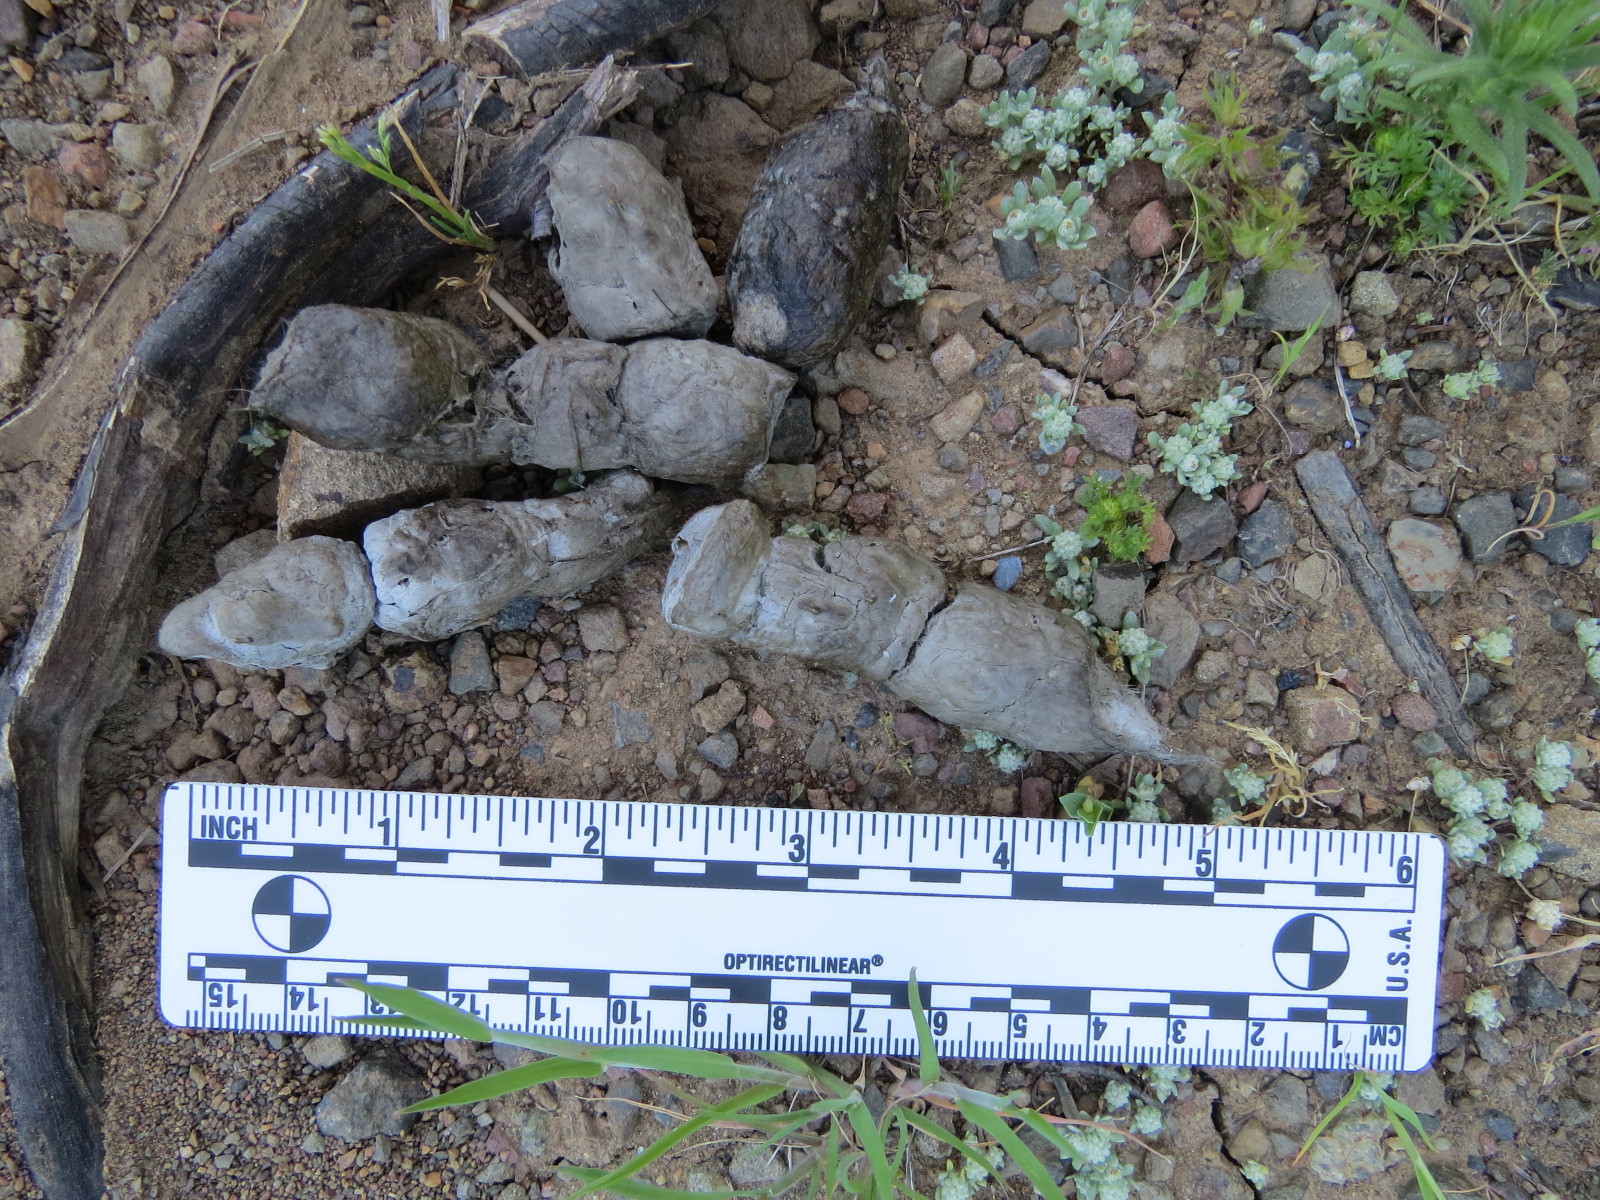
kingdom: Animalia
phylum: Chordata
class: Mammalia
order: Carnivora
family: Felidae
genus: Lynx
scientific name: Lynx rufus
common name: Bobcat
